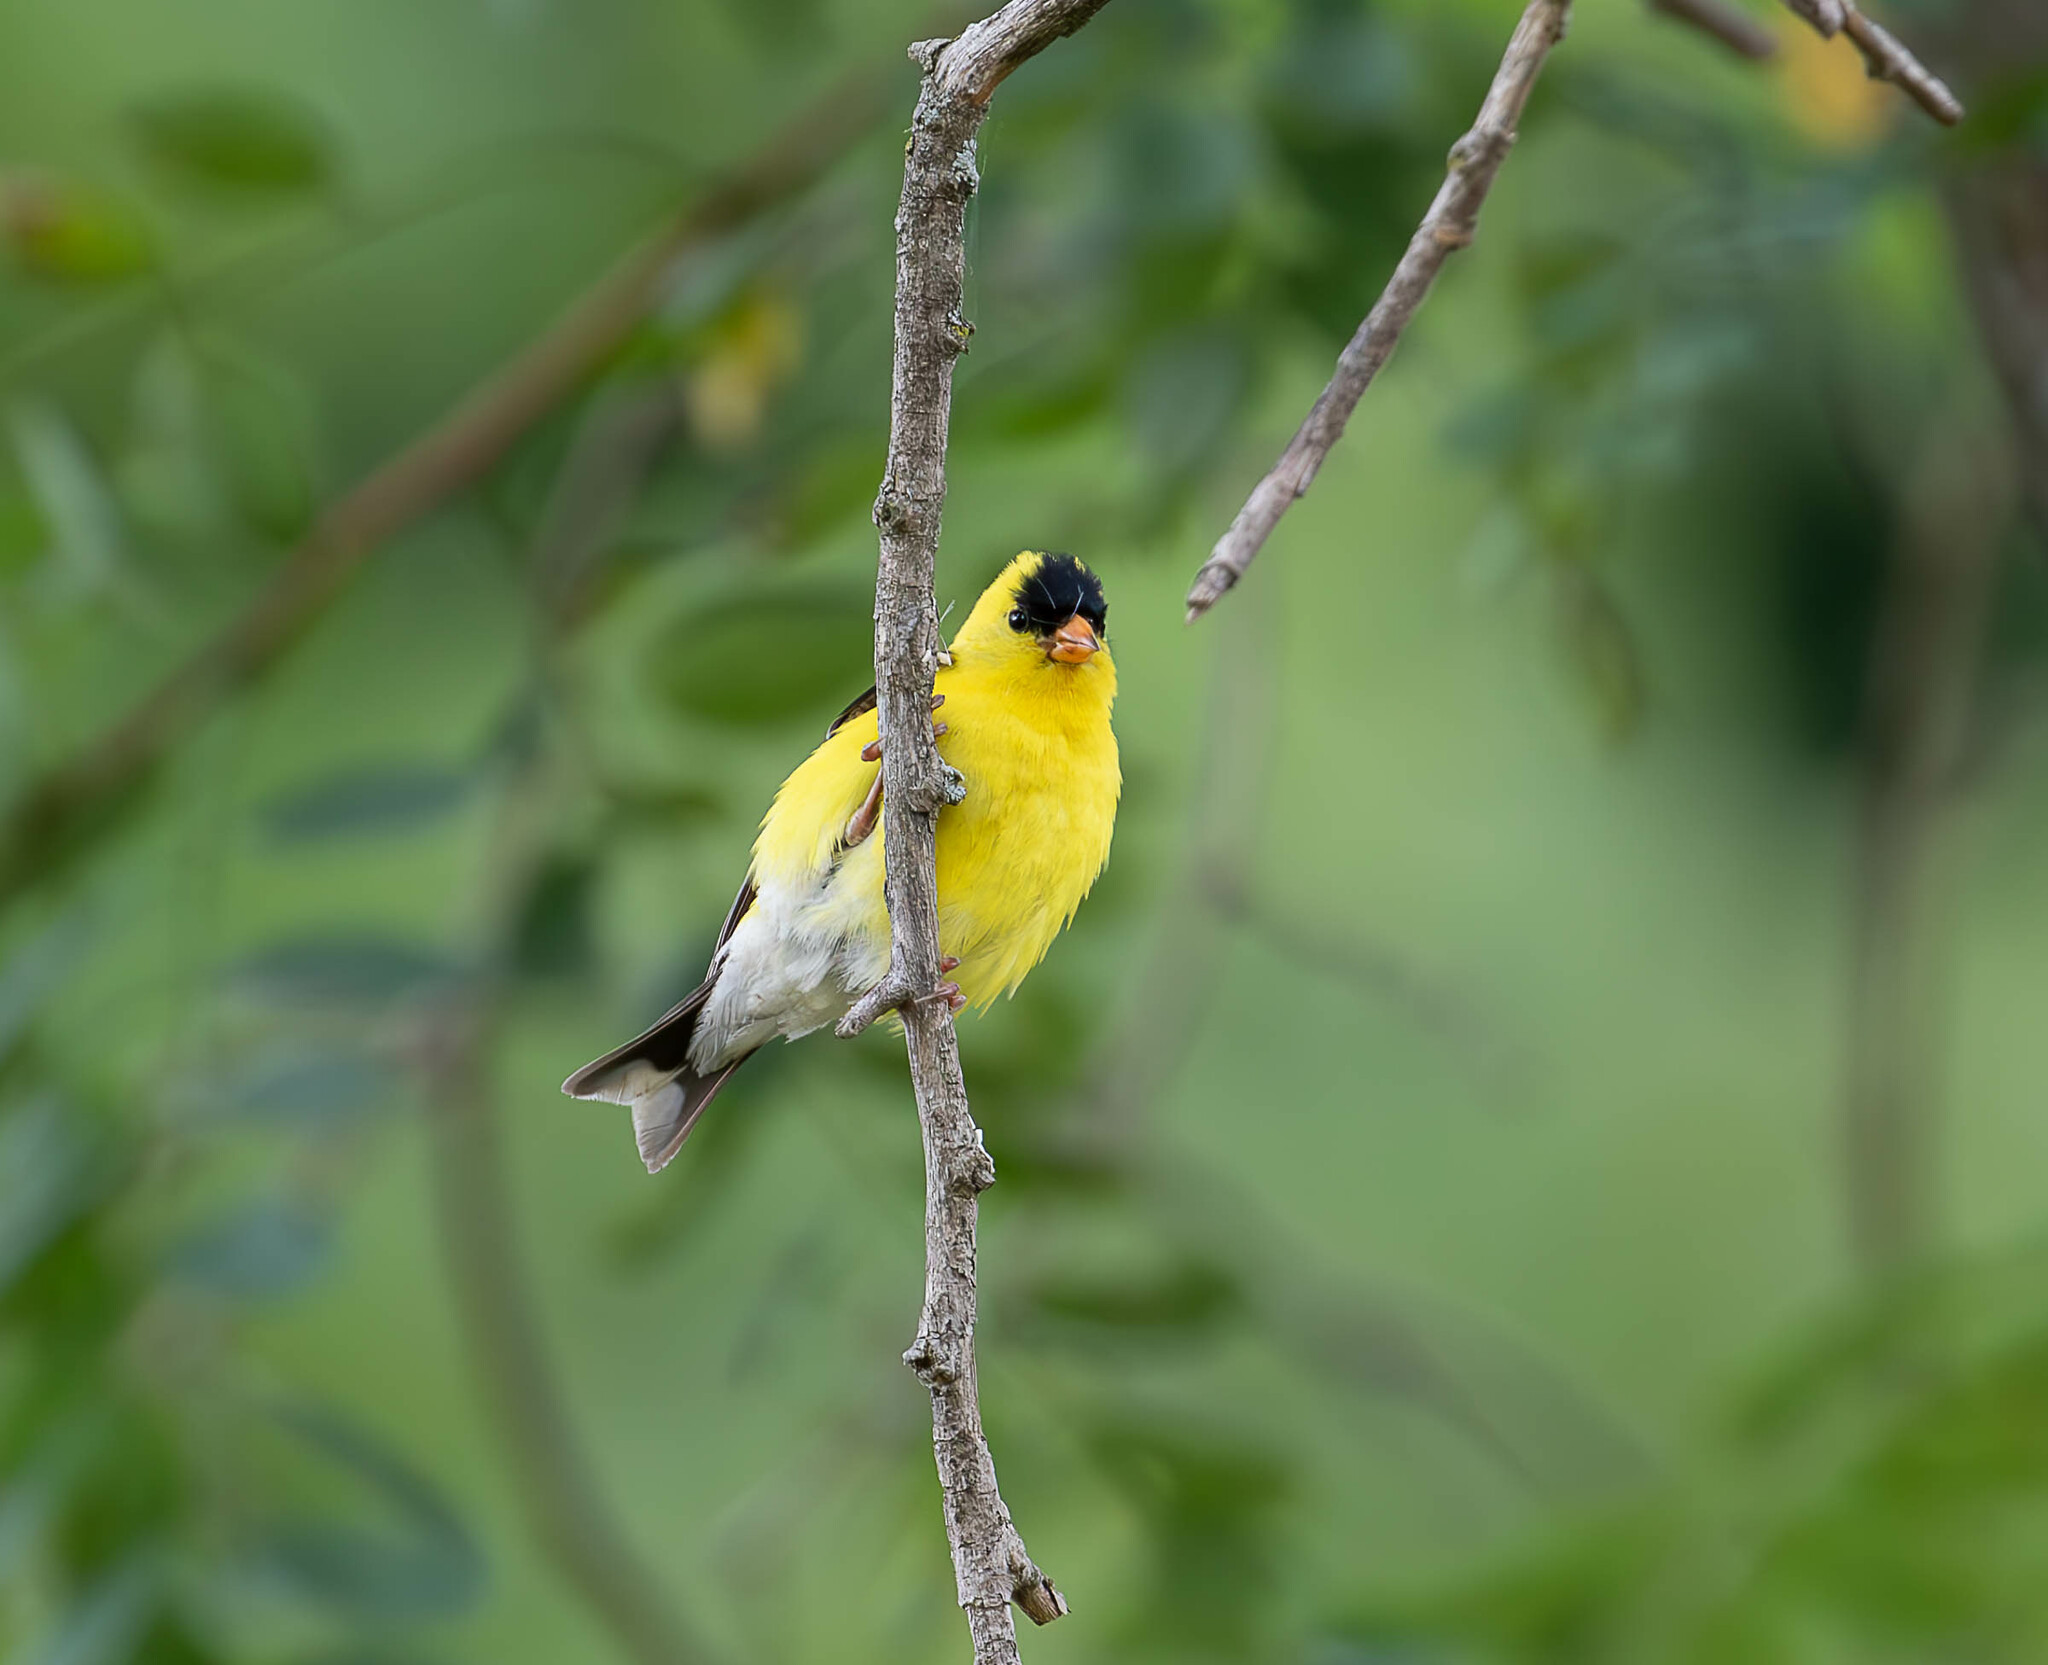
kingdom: Animalia
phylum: Chordata
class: Aves
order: Passeriformes
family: Fringillidae
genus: Spinus
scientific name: Spinus tristis
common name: American goldfinch
